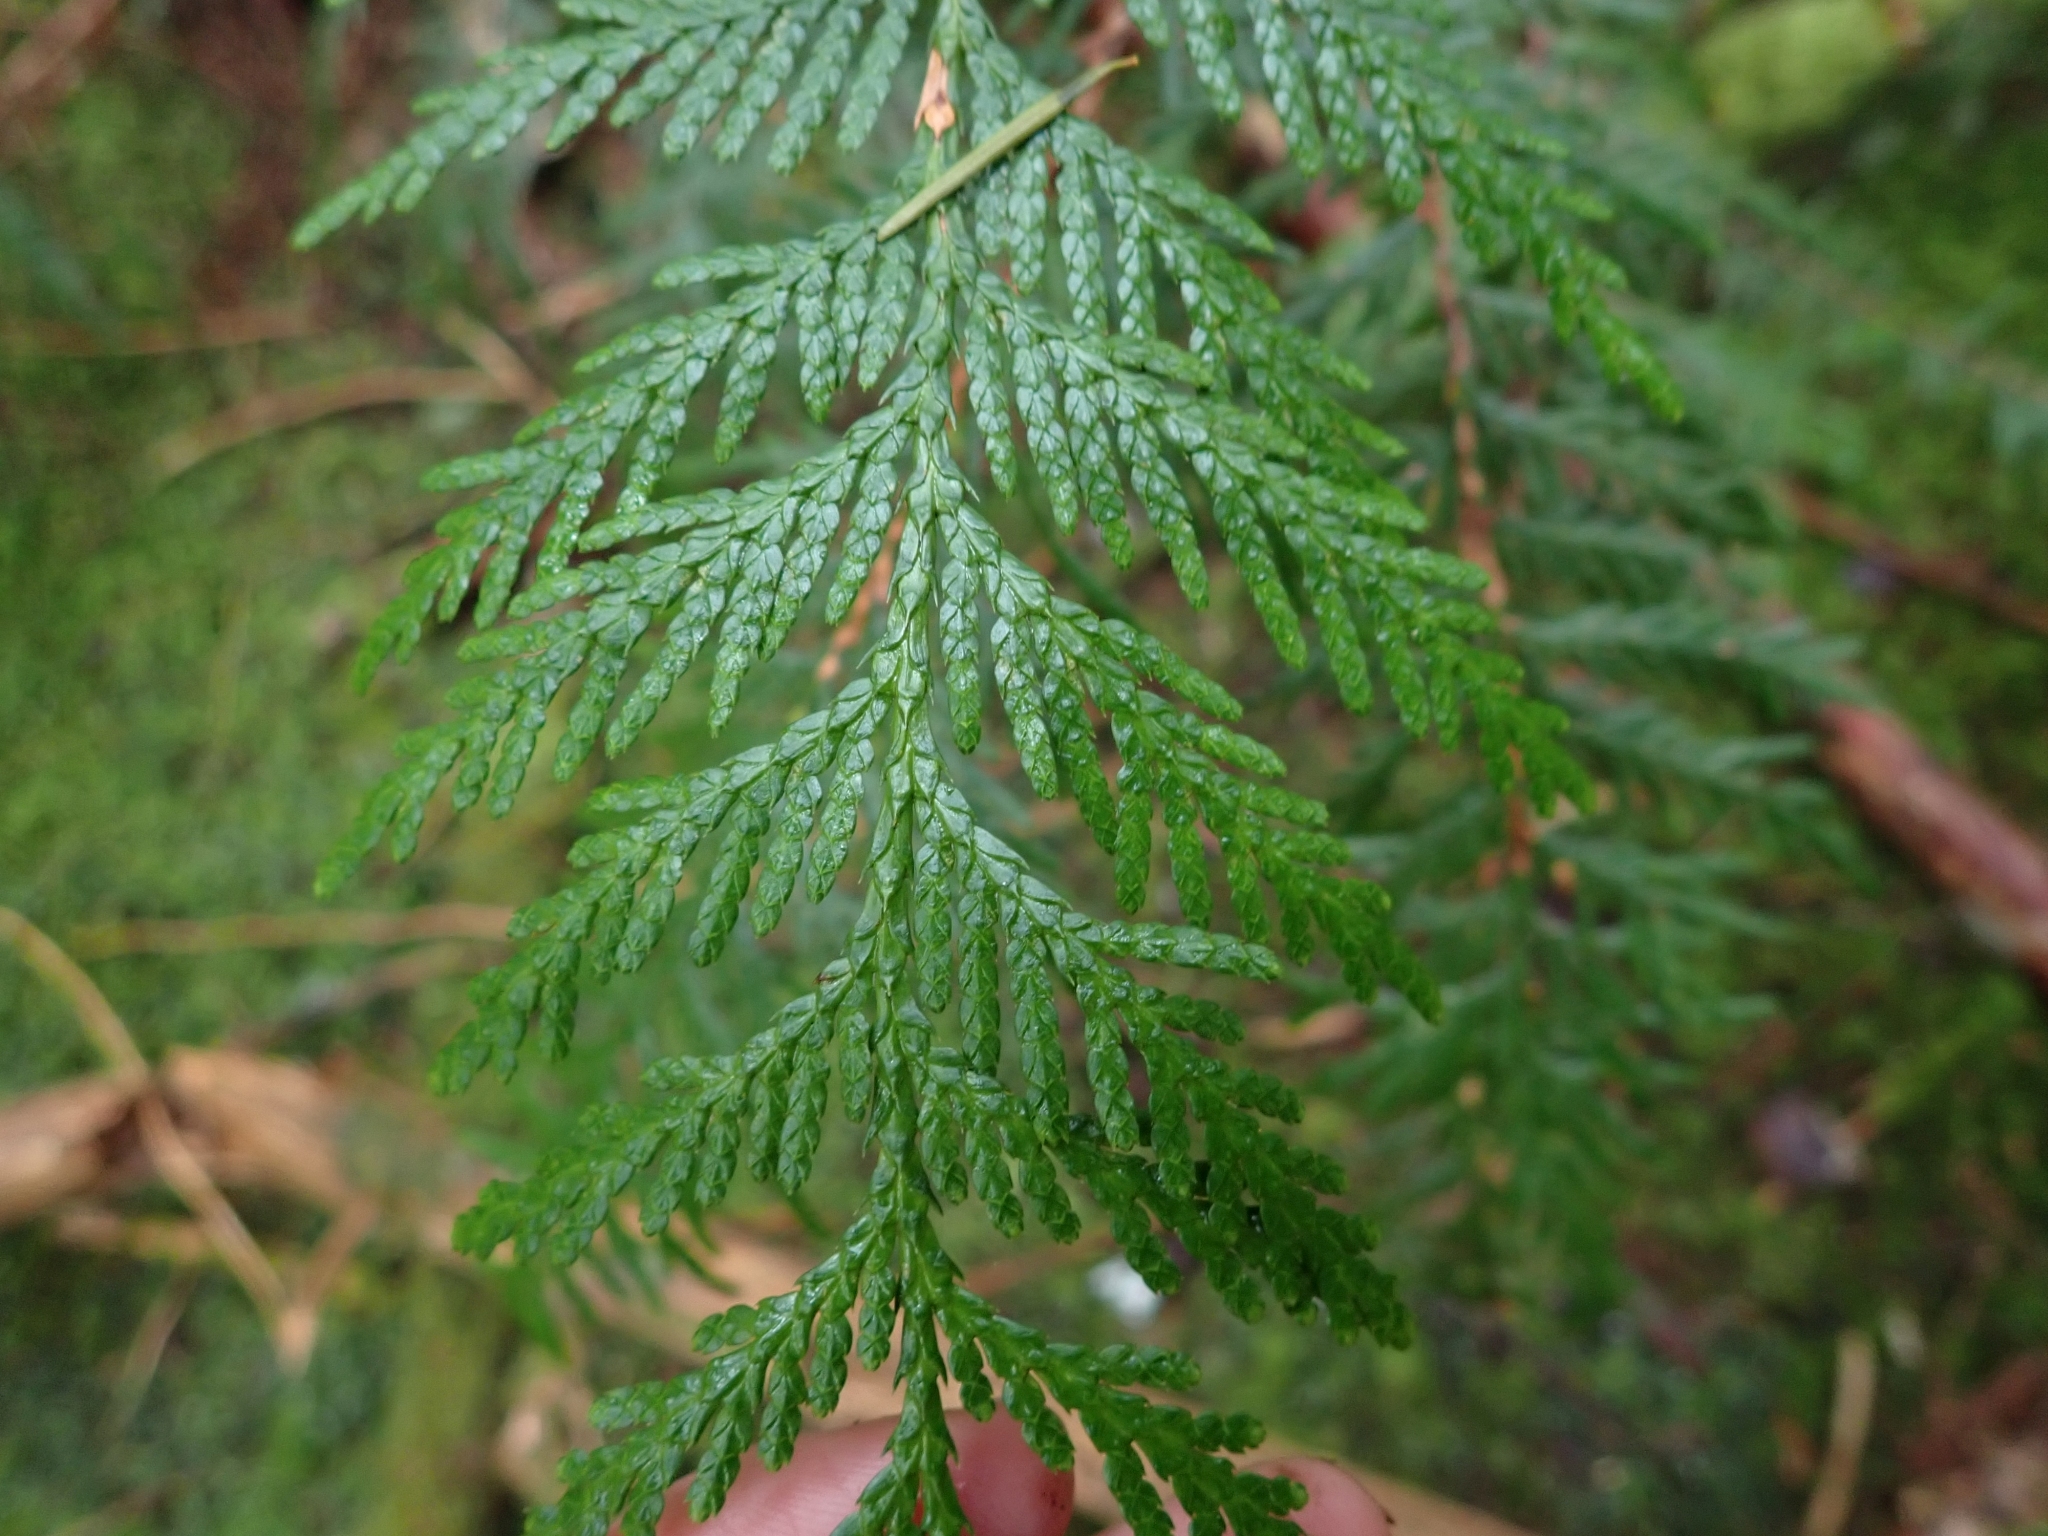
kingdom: Plantae
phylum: Tracheophyta
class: Pinopsida
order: Pinales
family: Cupressaceae
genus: Thuja
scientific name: Thuja plicata
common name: Western red-cedar
